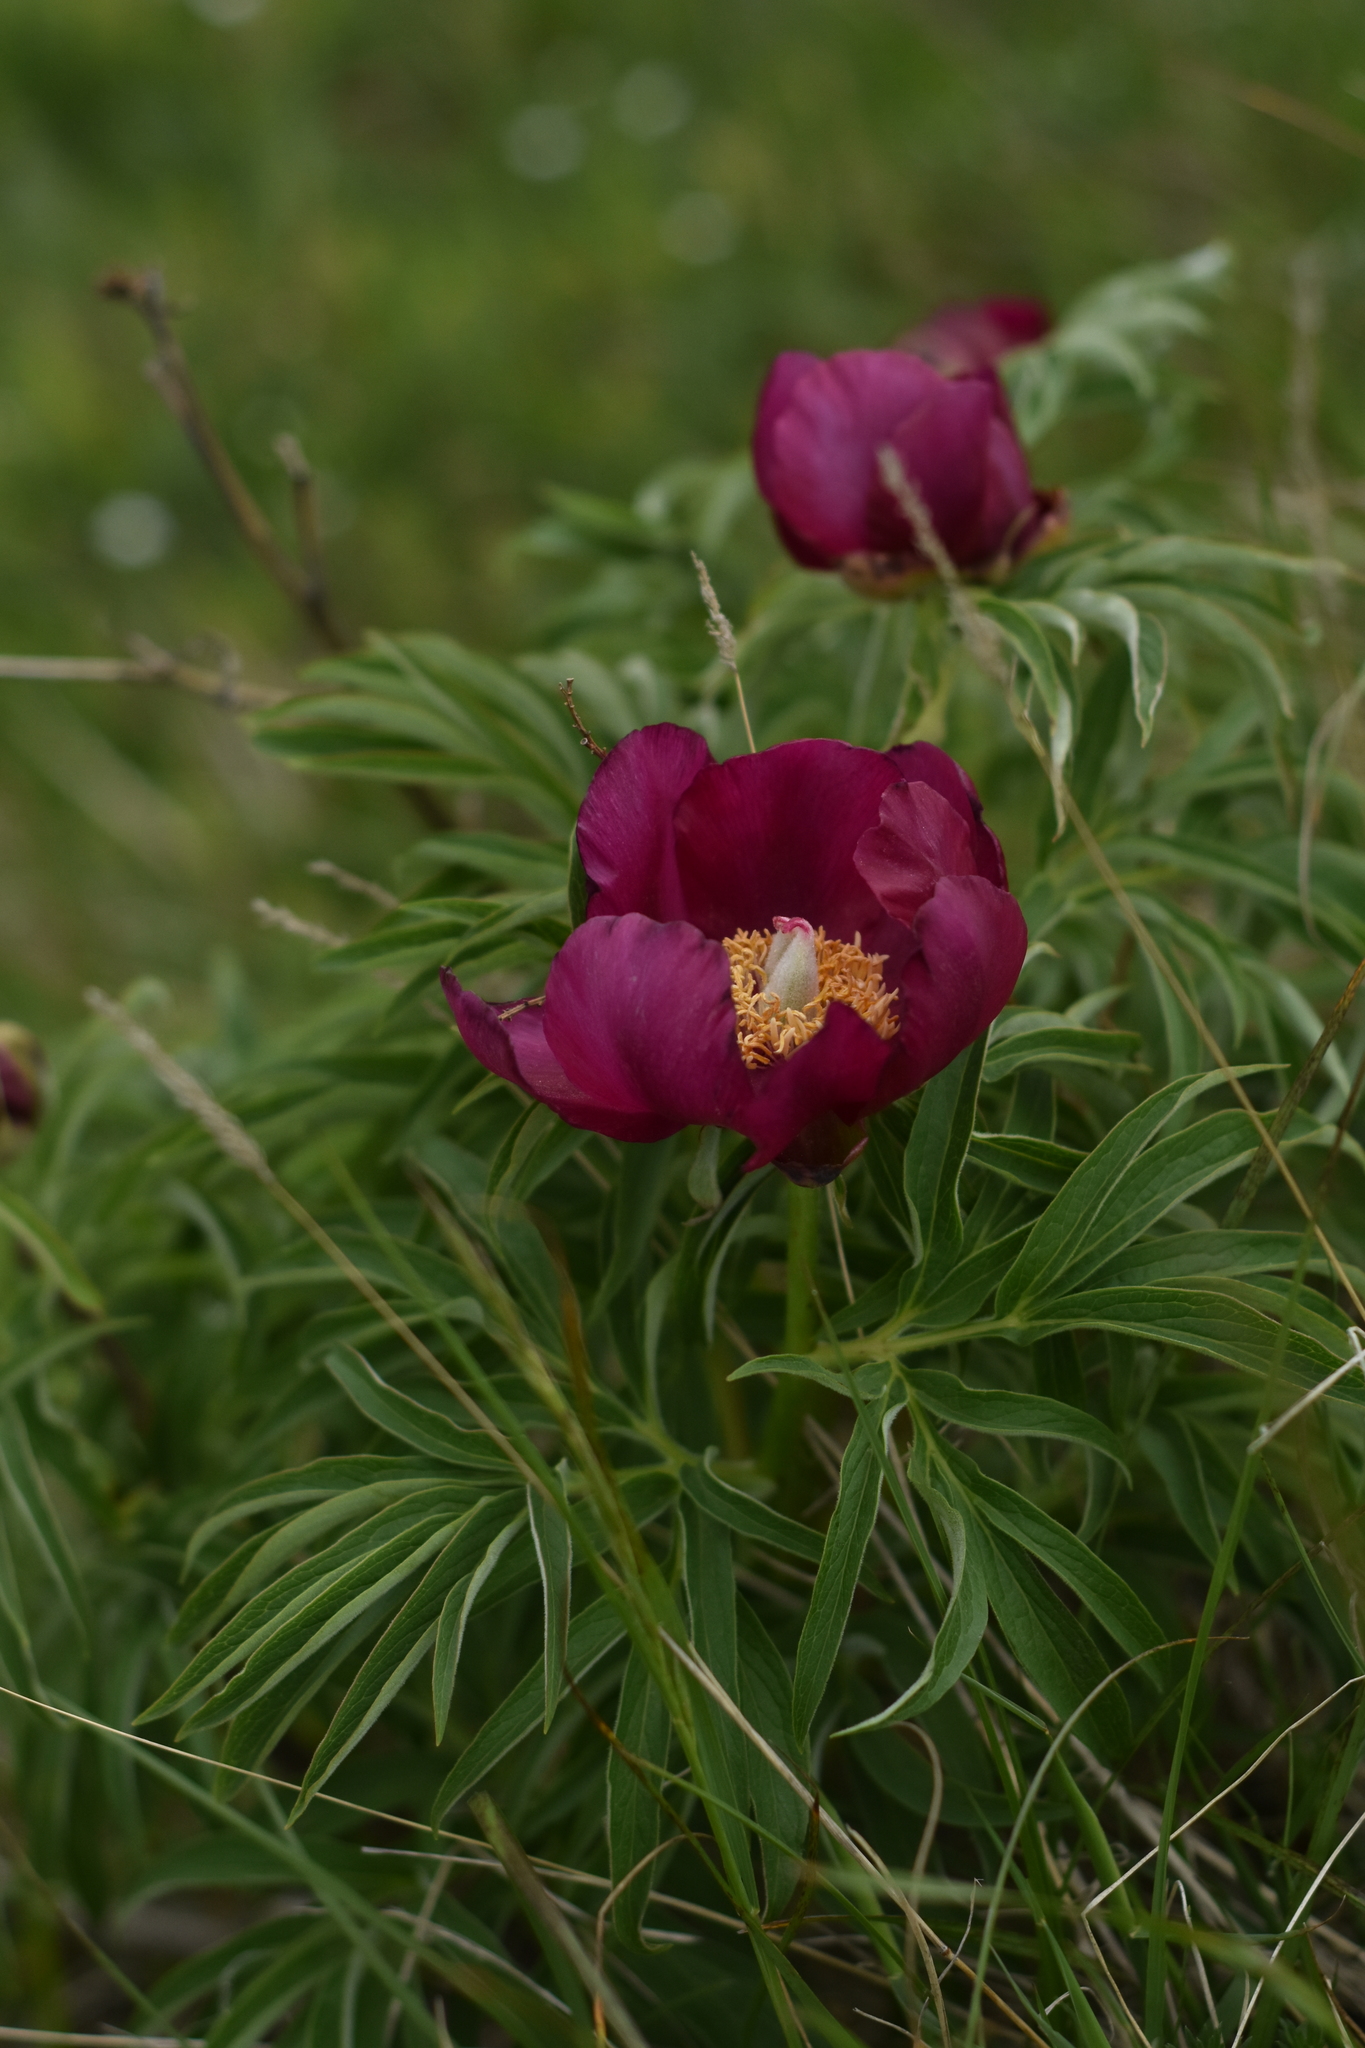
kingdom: Plantae
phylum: Tracheophyta
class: Magnoliopsida
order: Saxifragales
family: Paeoniaceae
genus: Paeonia
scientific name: Paeonia officinalis
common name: Common peony
